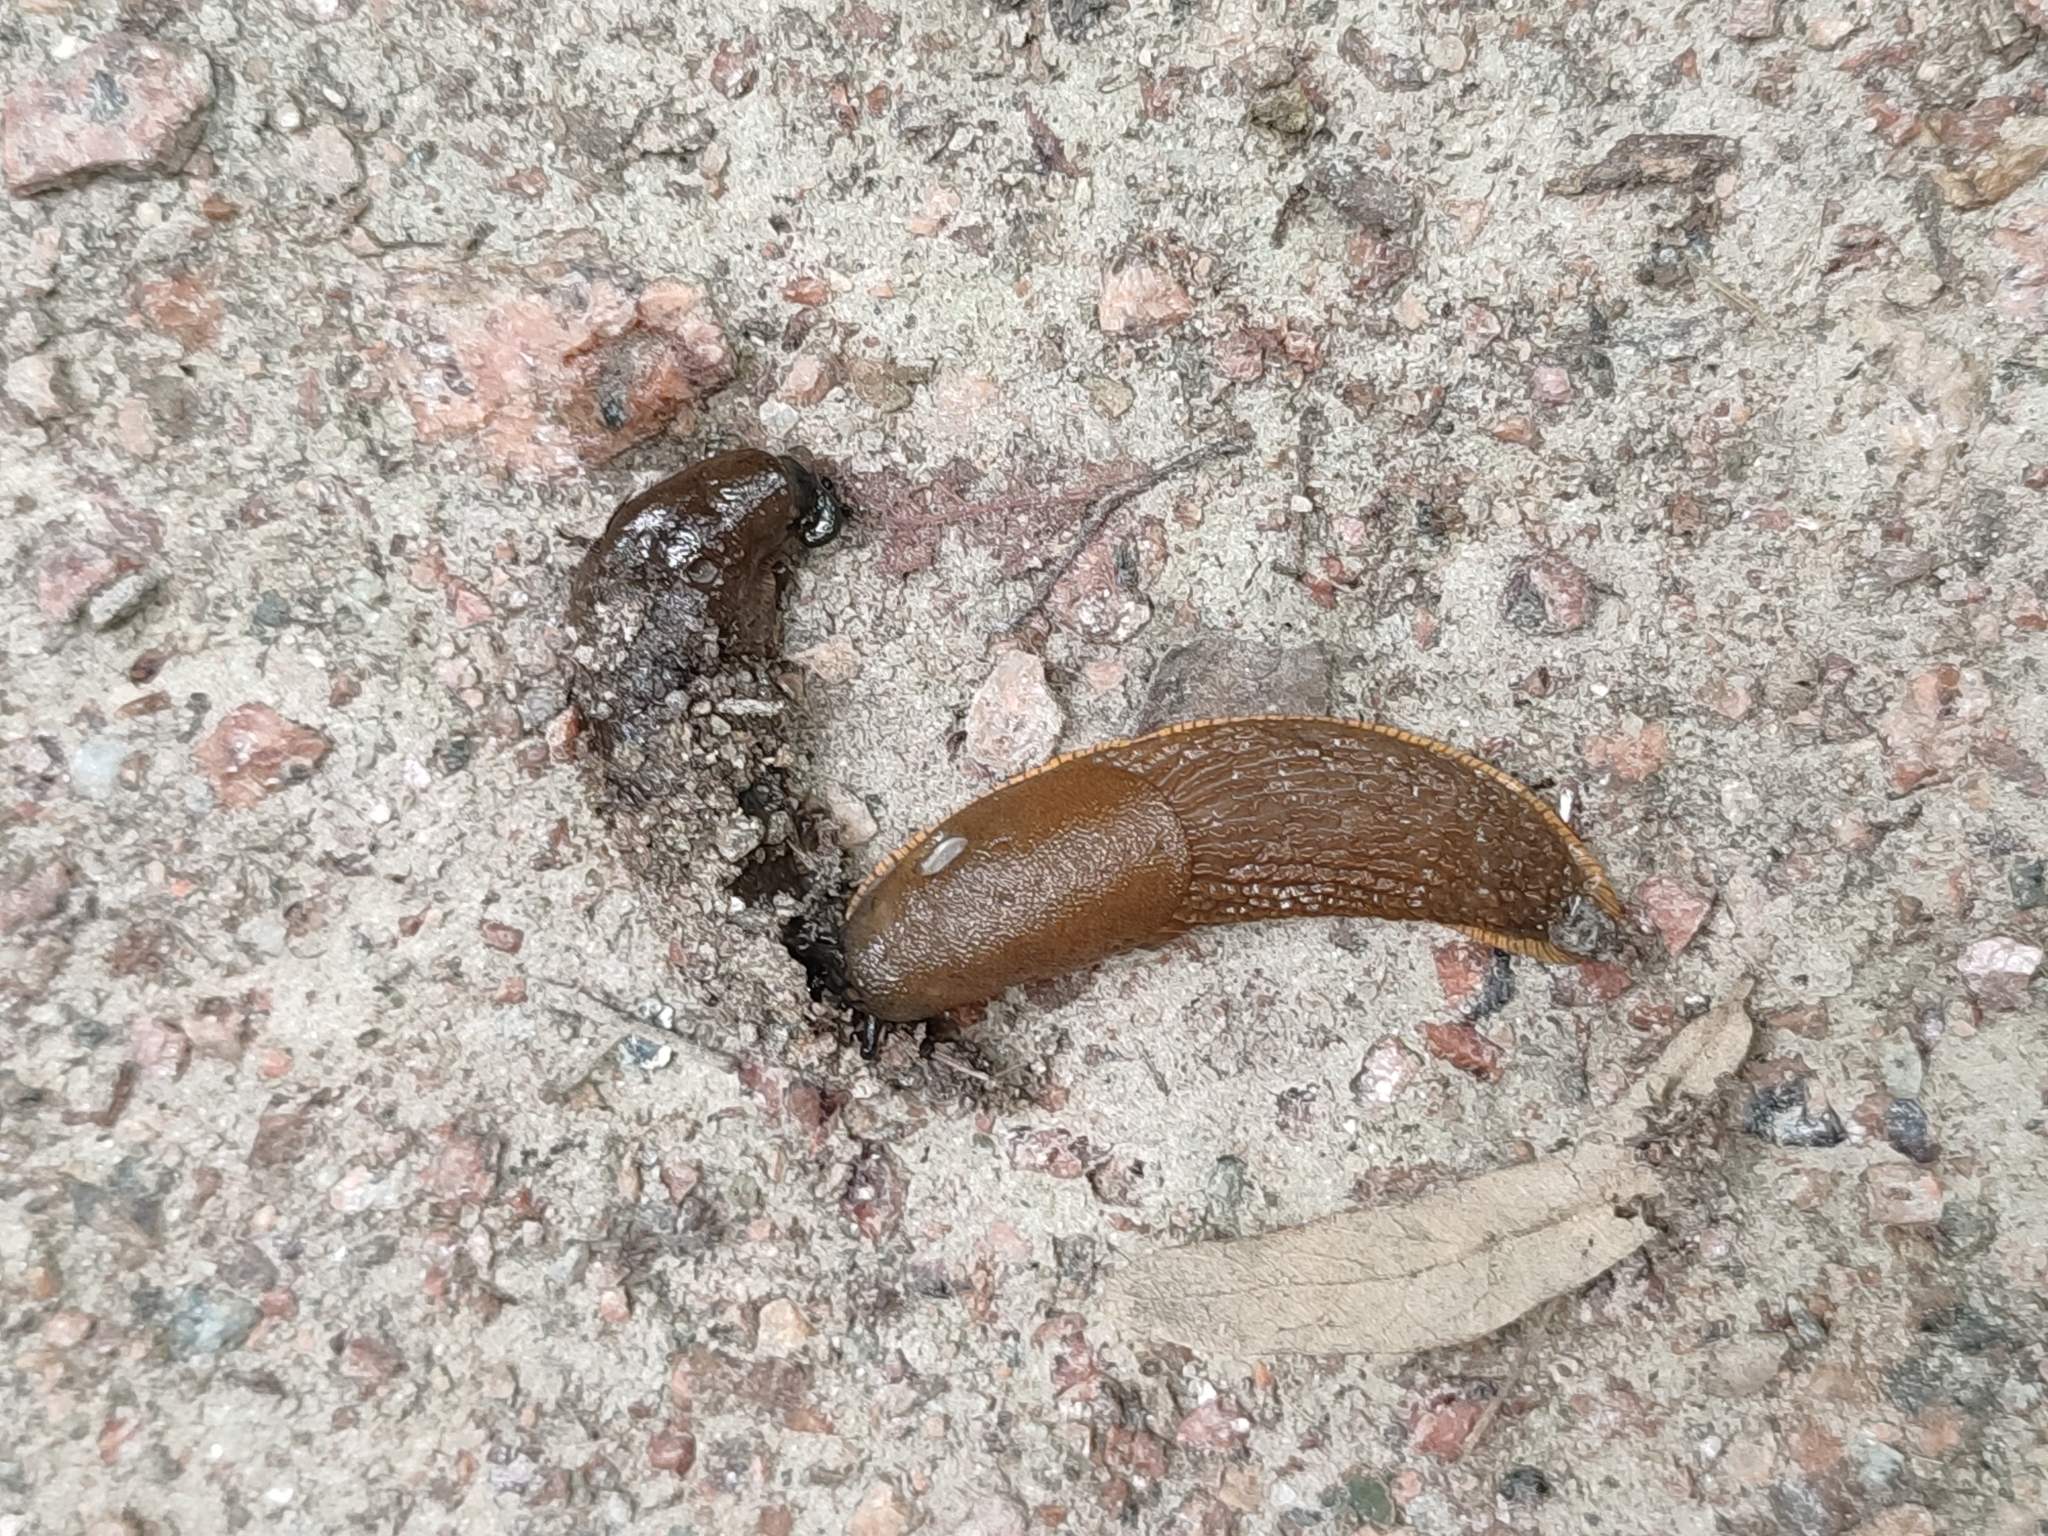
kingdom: Animalia
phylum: Mollusca
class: Gastropoda
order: Stylommatophora
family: Arionidae
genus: Arion
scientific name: Arion vulgaris
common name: Lusitanian slug
